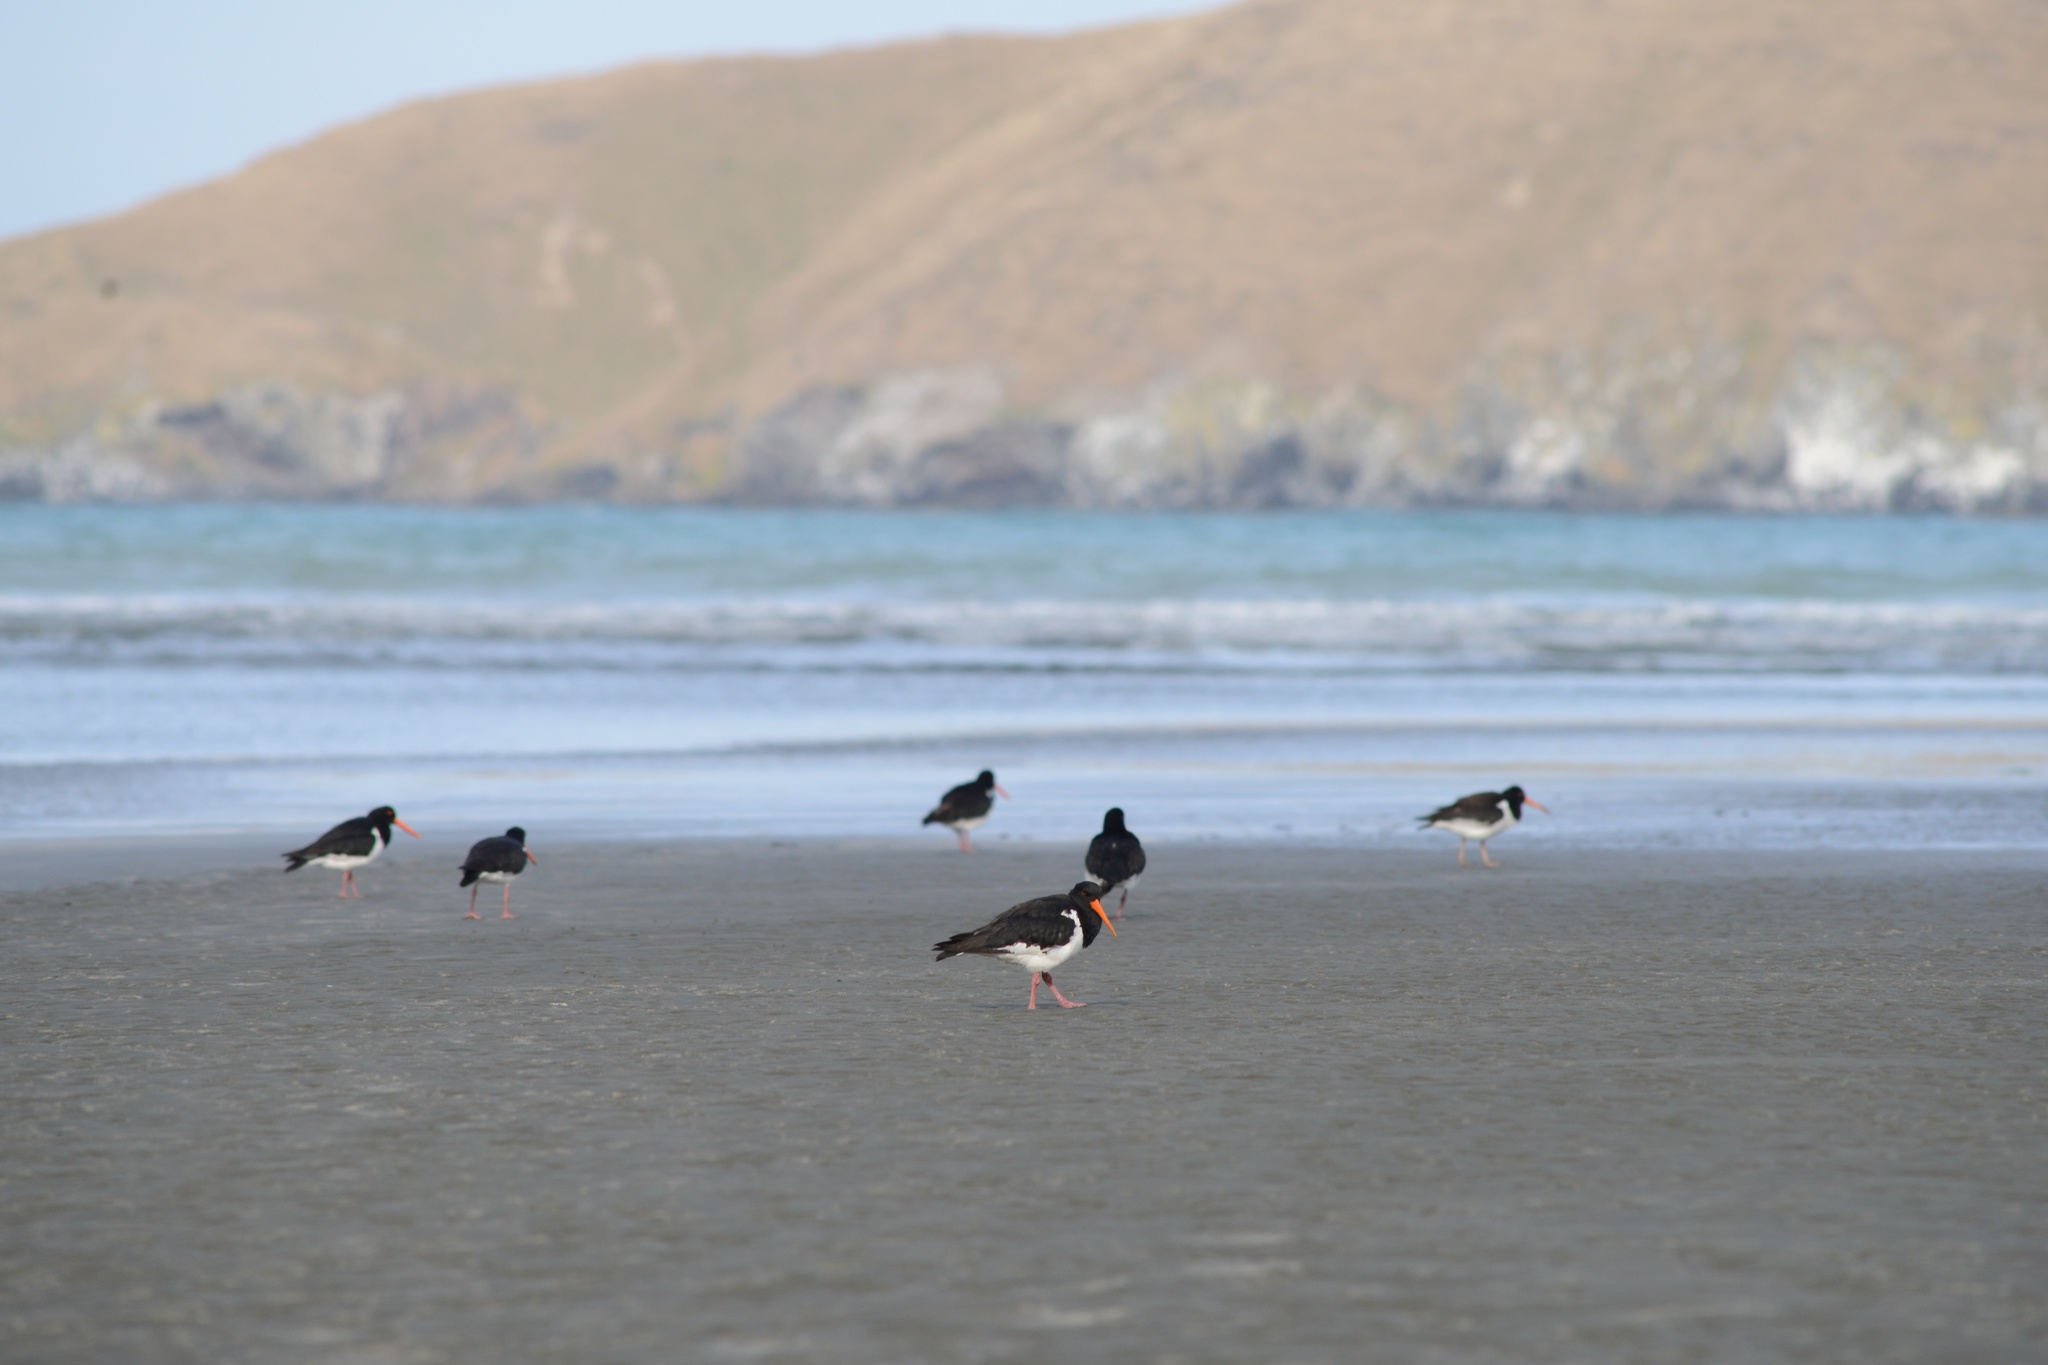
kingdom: Animalia
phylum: Chordata
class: Aves
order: Charadriiformes
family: Haematopodidae
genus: Haematopus
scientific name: Haematopus finschi
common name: South island oystercatcher
